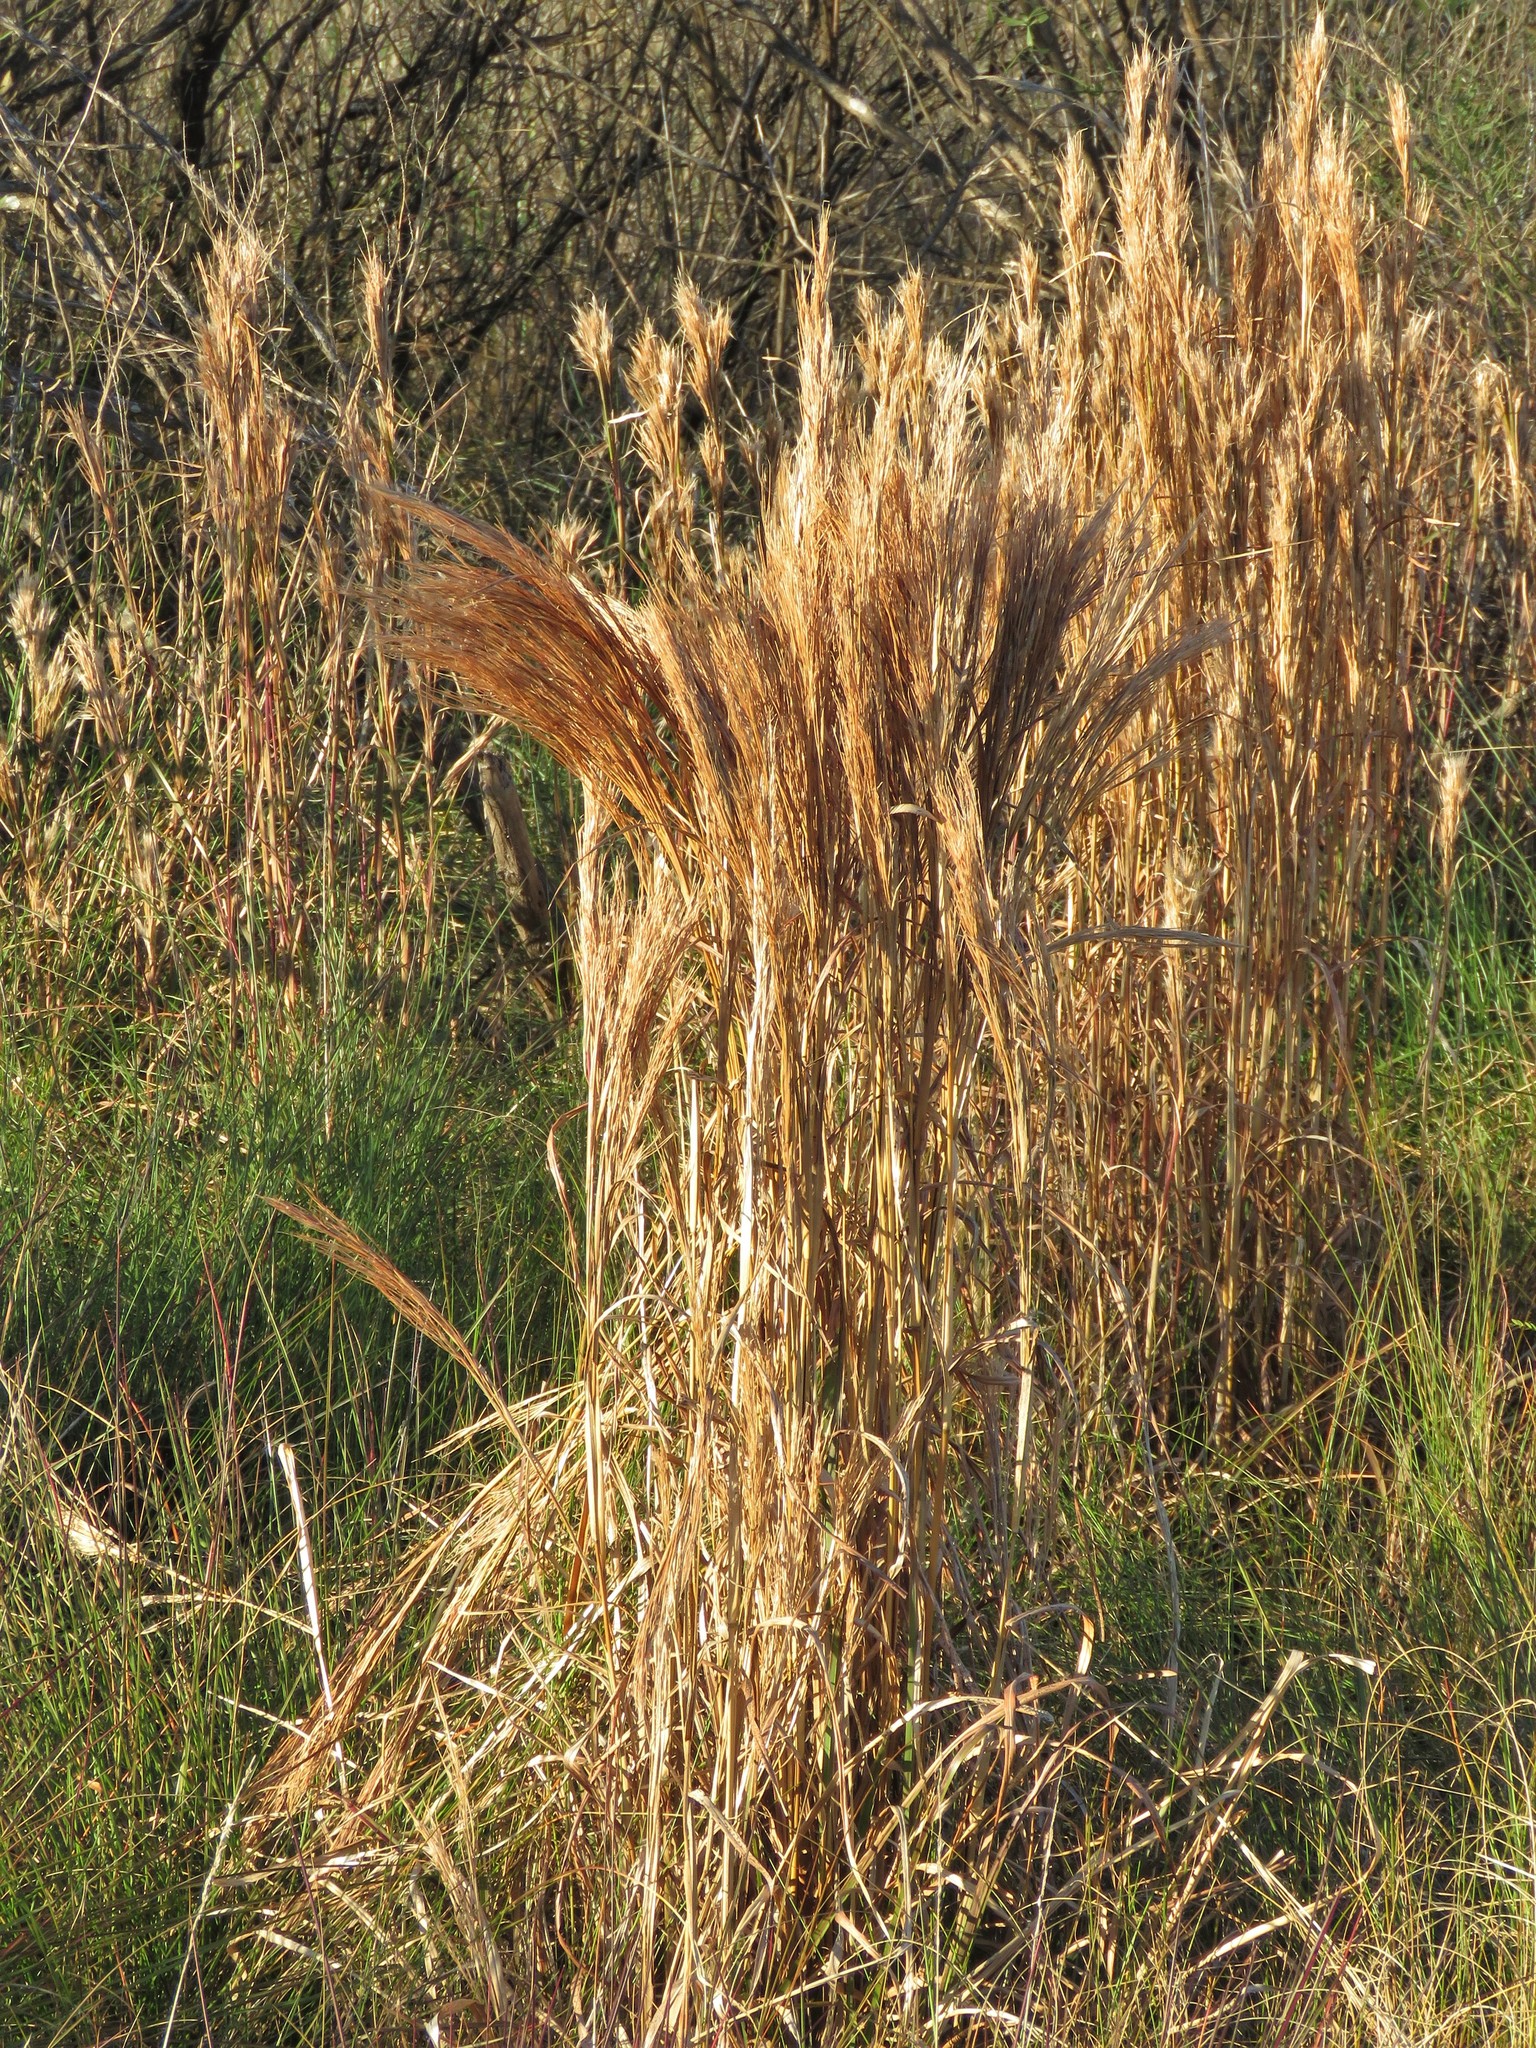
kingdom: Plantae
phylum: Tracheophyta
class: Liliopsida
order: Poales
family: Poaceae
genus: Andropogon
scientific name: Andropogon tenuispatheus
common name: Bushy bluestem
